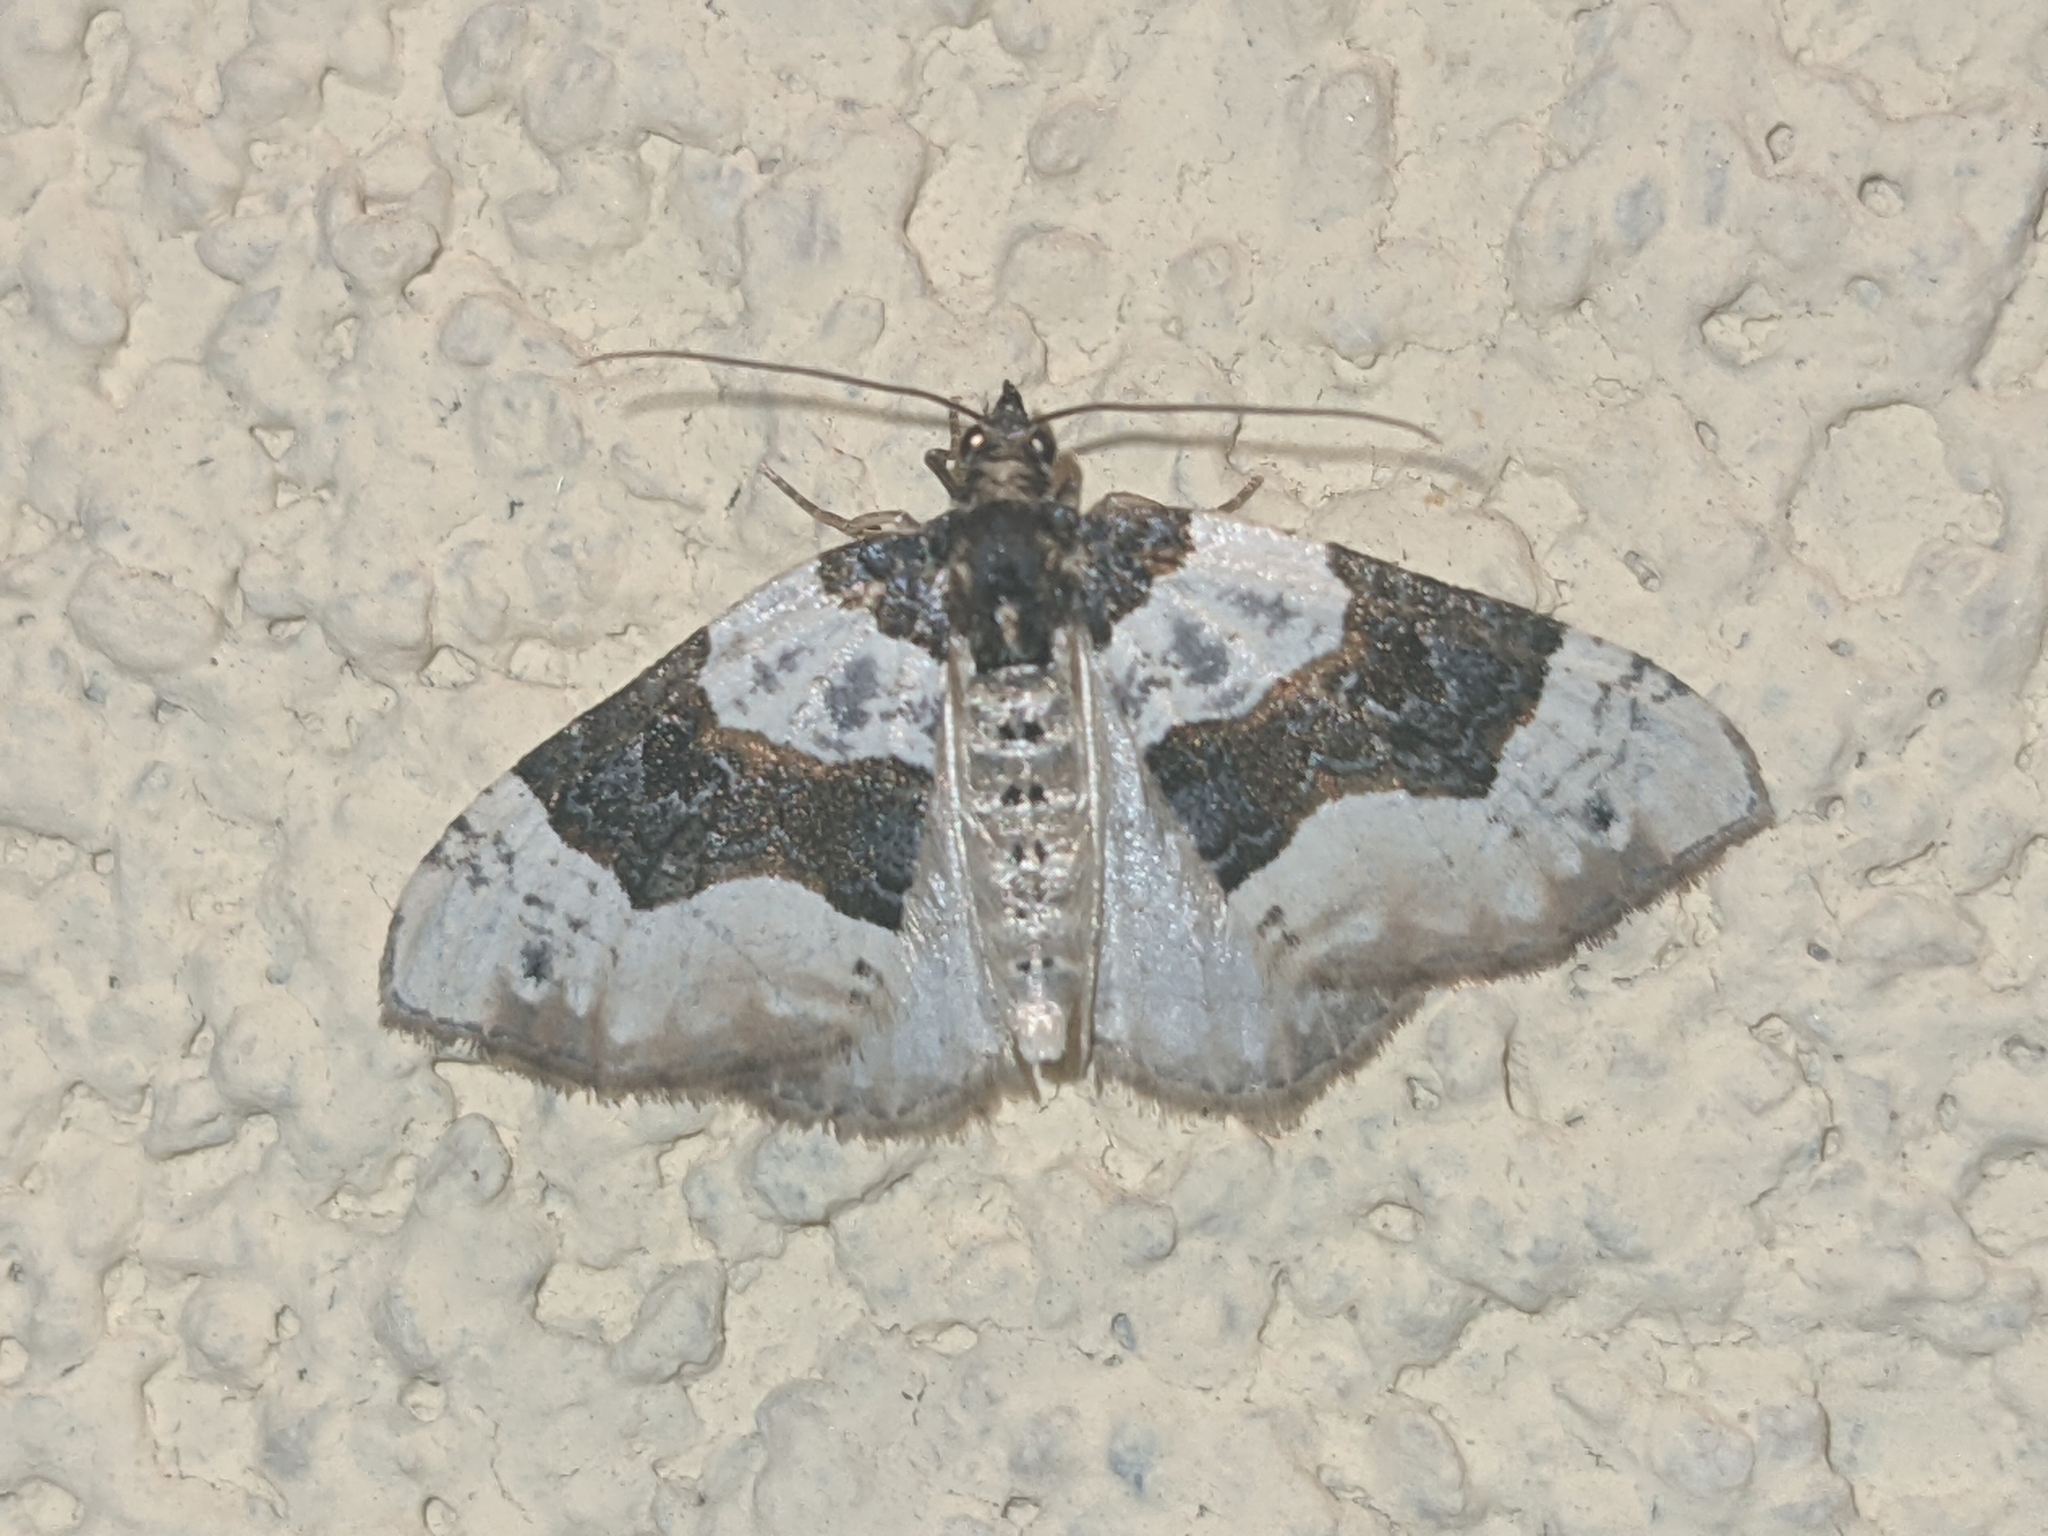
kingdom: Animalia
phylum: Arthropoda
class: Insecta
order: Lepidoptera
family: Geometridae
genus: Cosmorhoe
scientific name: Cosmorhoe ocellata
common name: Purple bar
